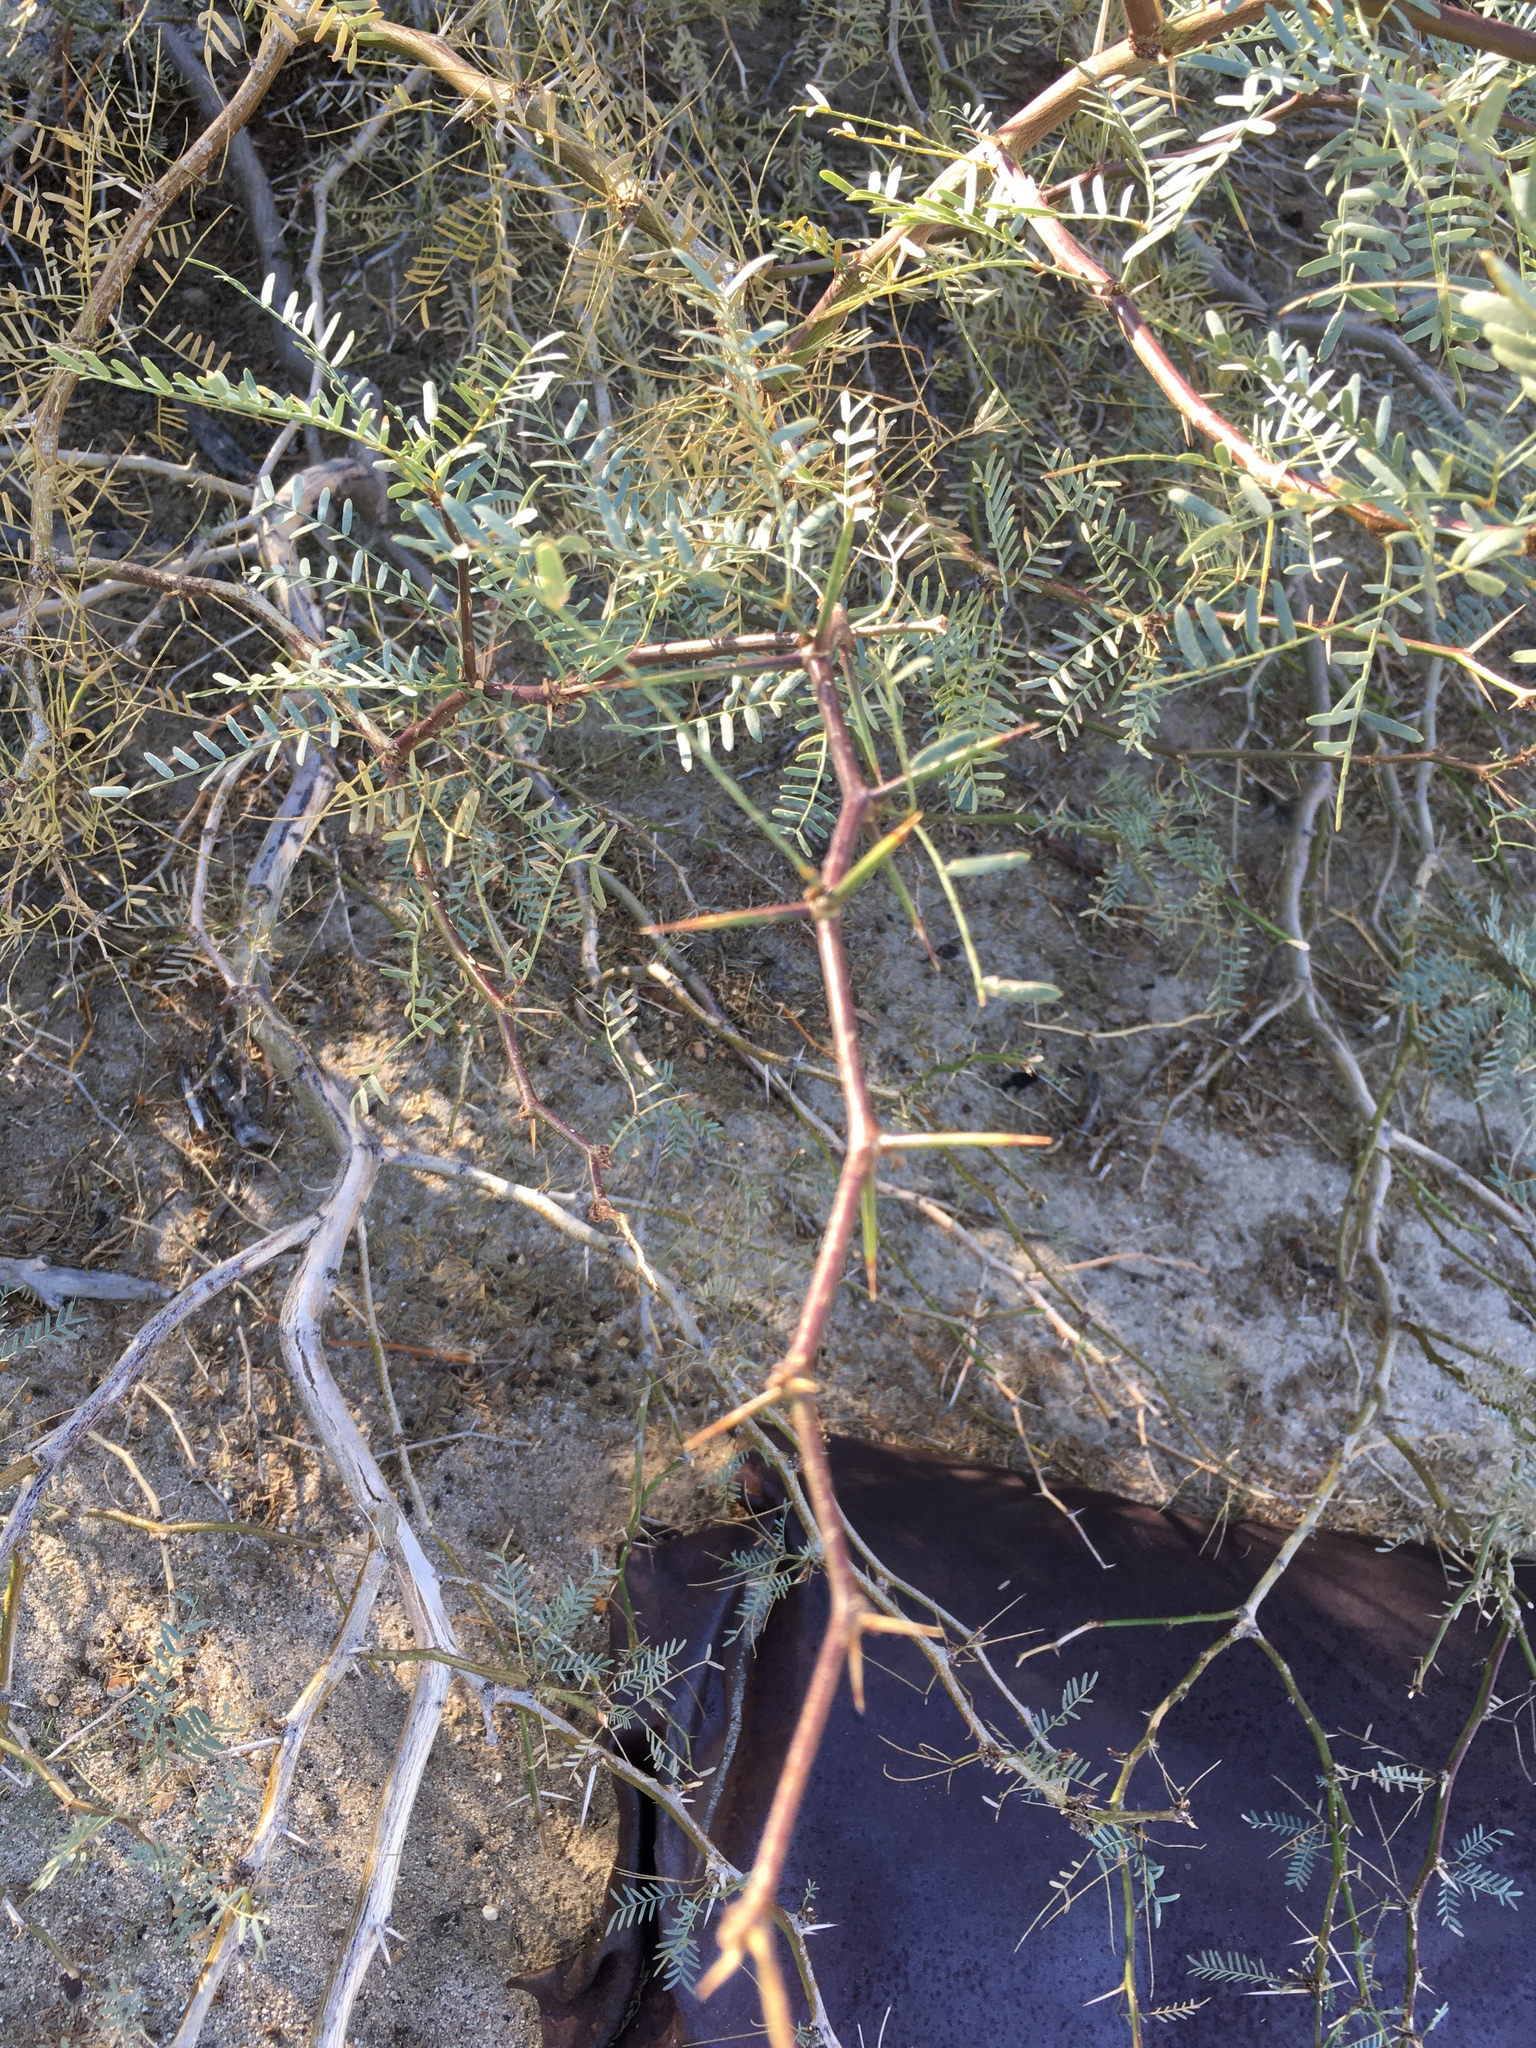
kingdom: Plantae
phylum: Tracheophyta
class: Magnoliopsida
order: Fabales
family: Fabaceae
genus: Prosopis
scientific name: Prosopis pubescens
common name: Screw-bean
